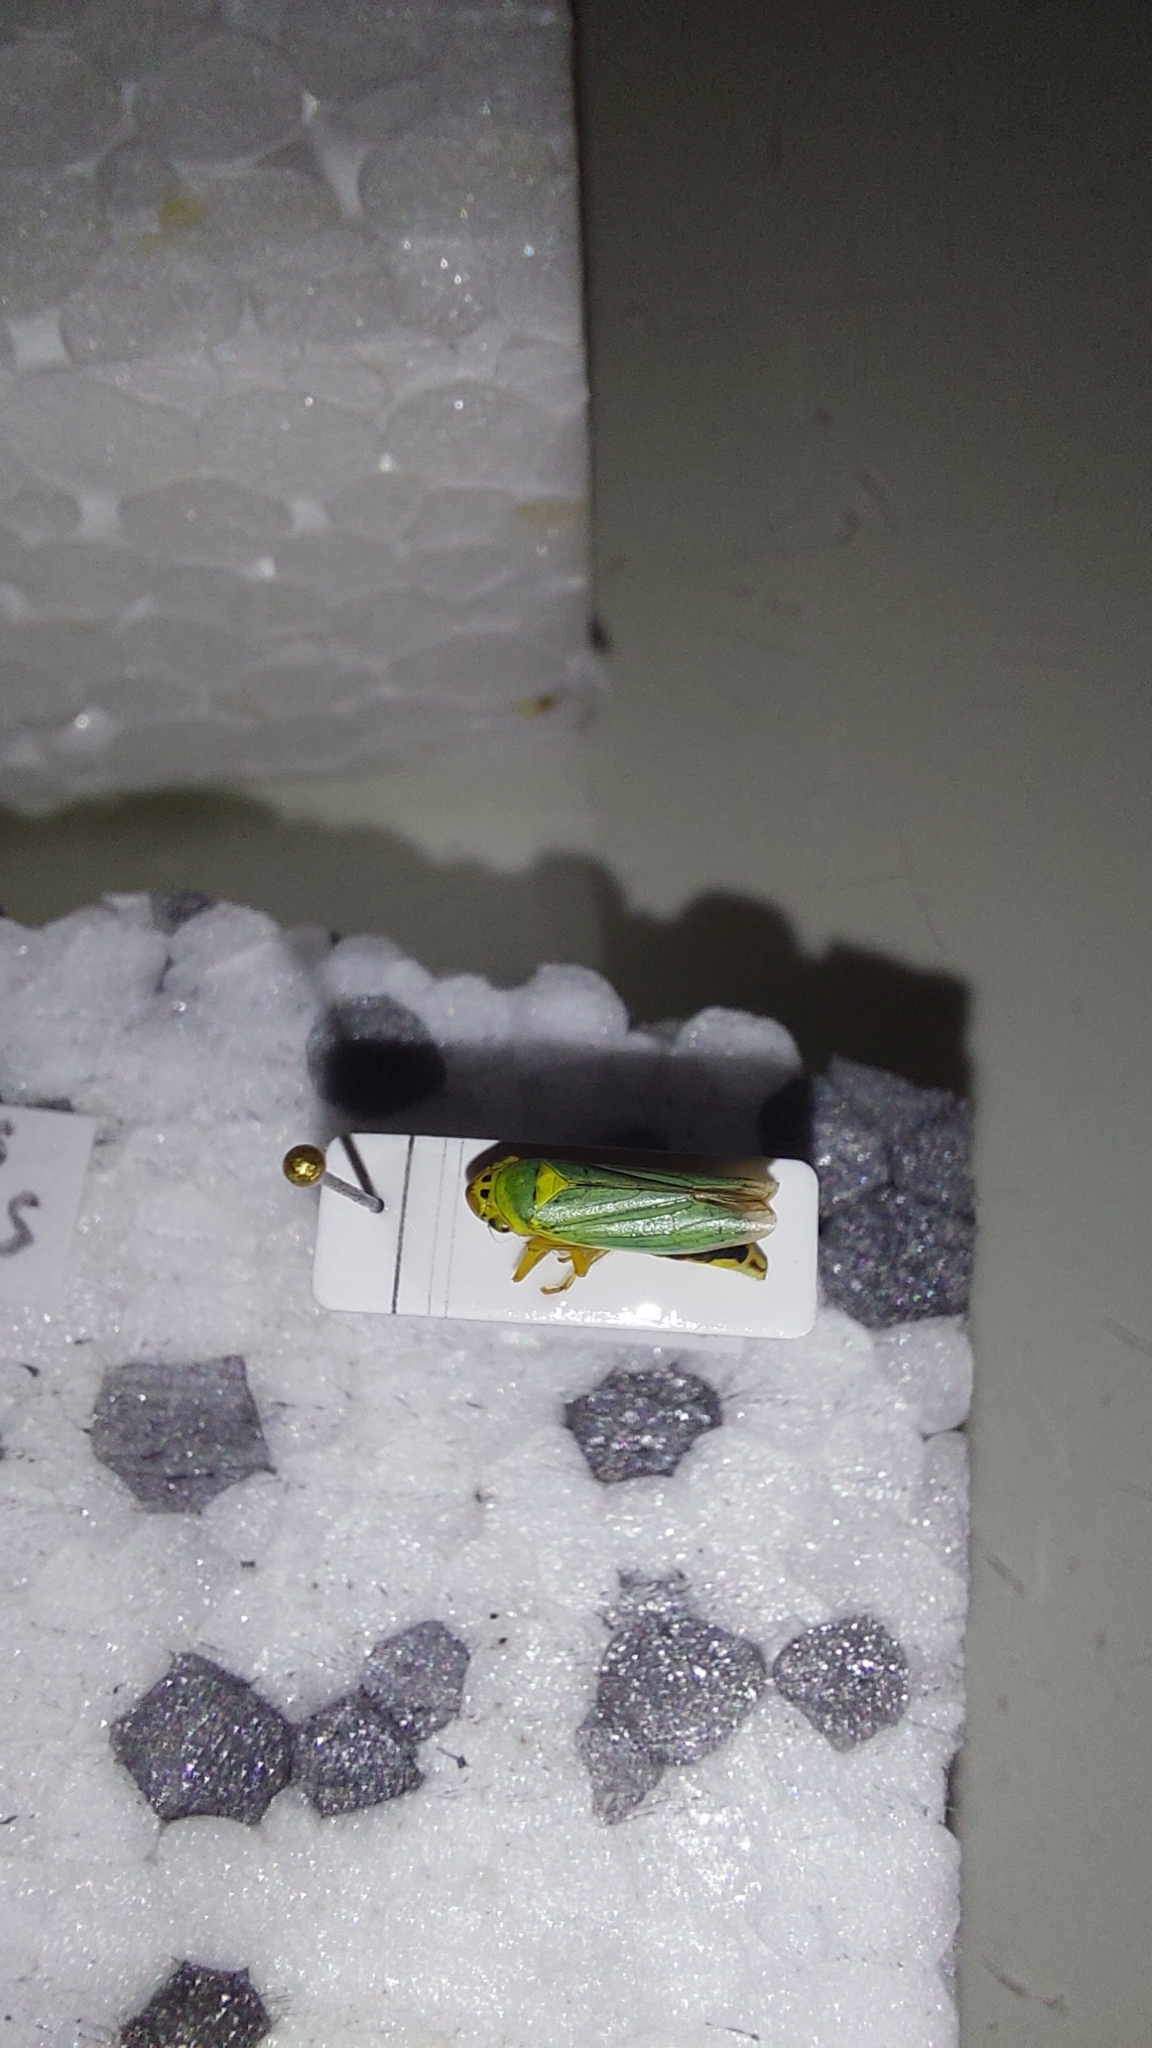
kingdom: Animalia
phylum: Arthropoda
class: Insecta
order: Hemiptera
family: Cicadellidae
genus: Cicadella
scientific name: Cicadella viridis
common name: Leafhopper
